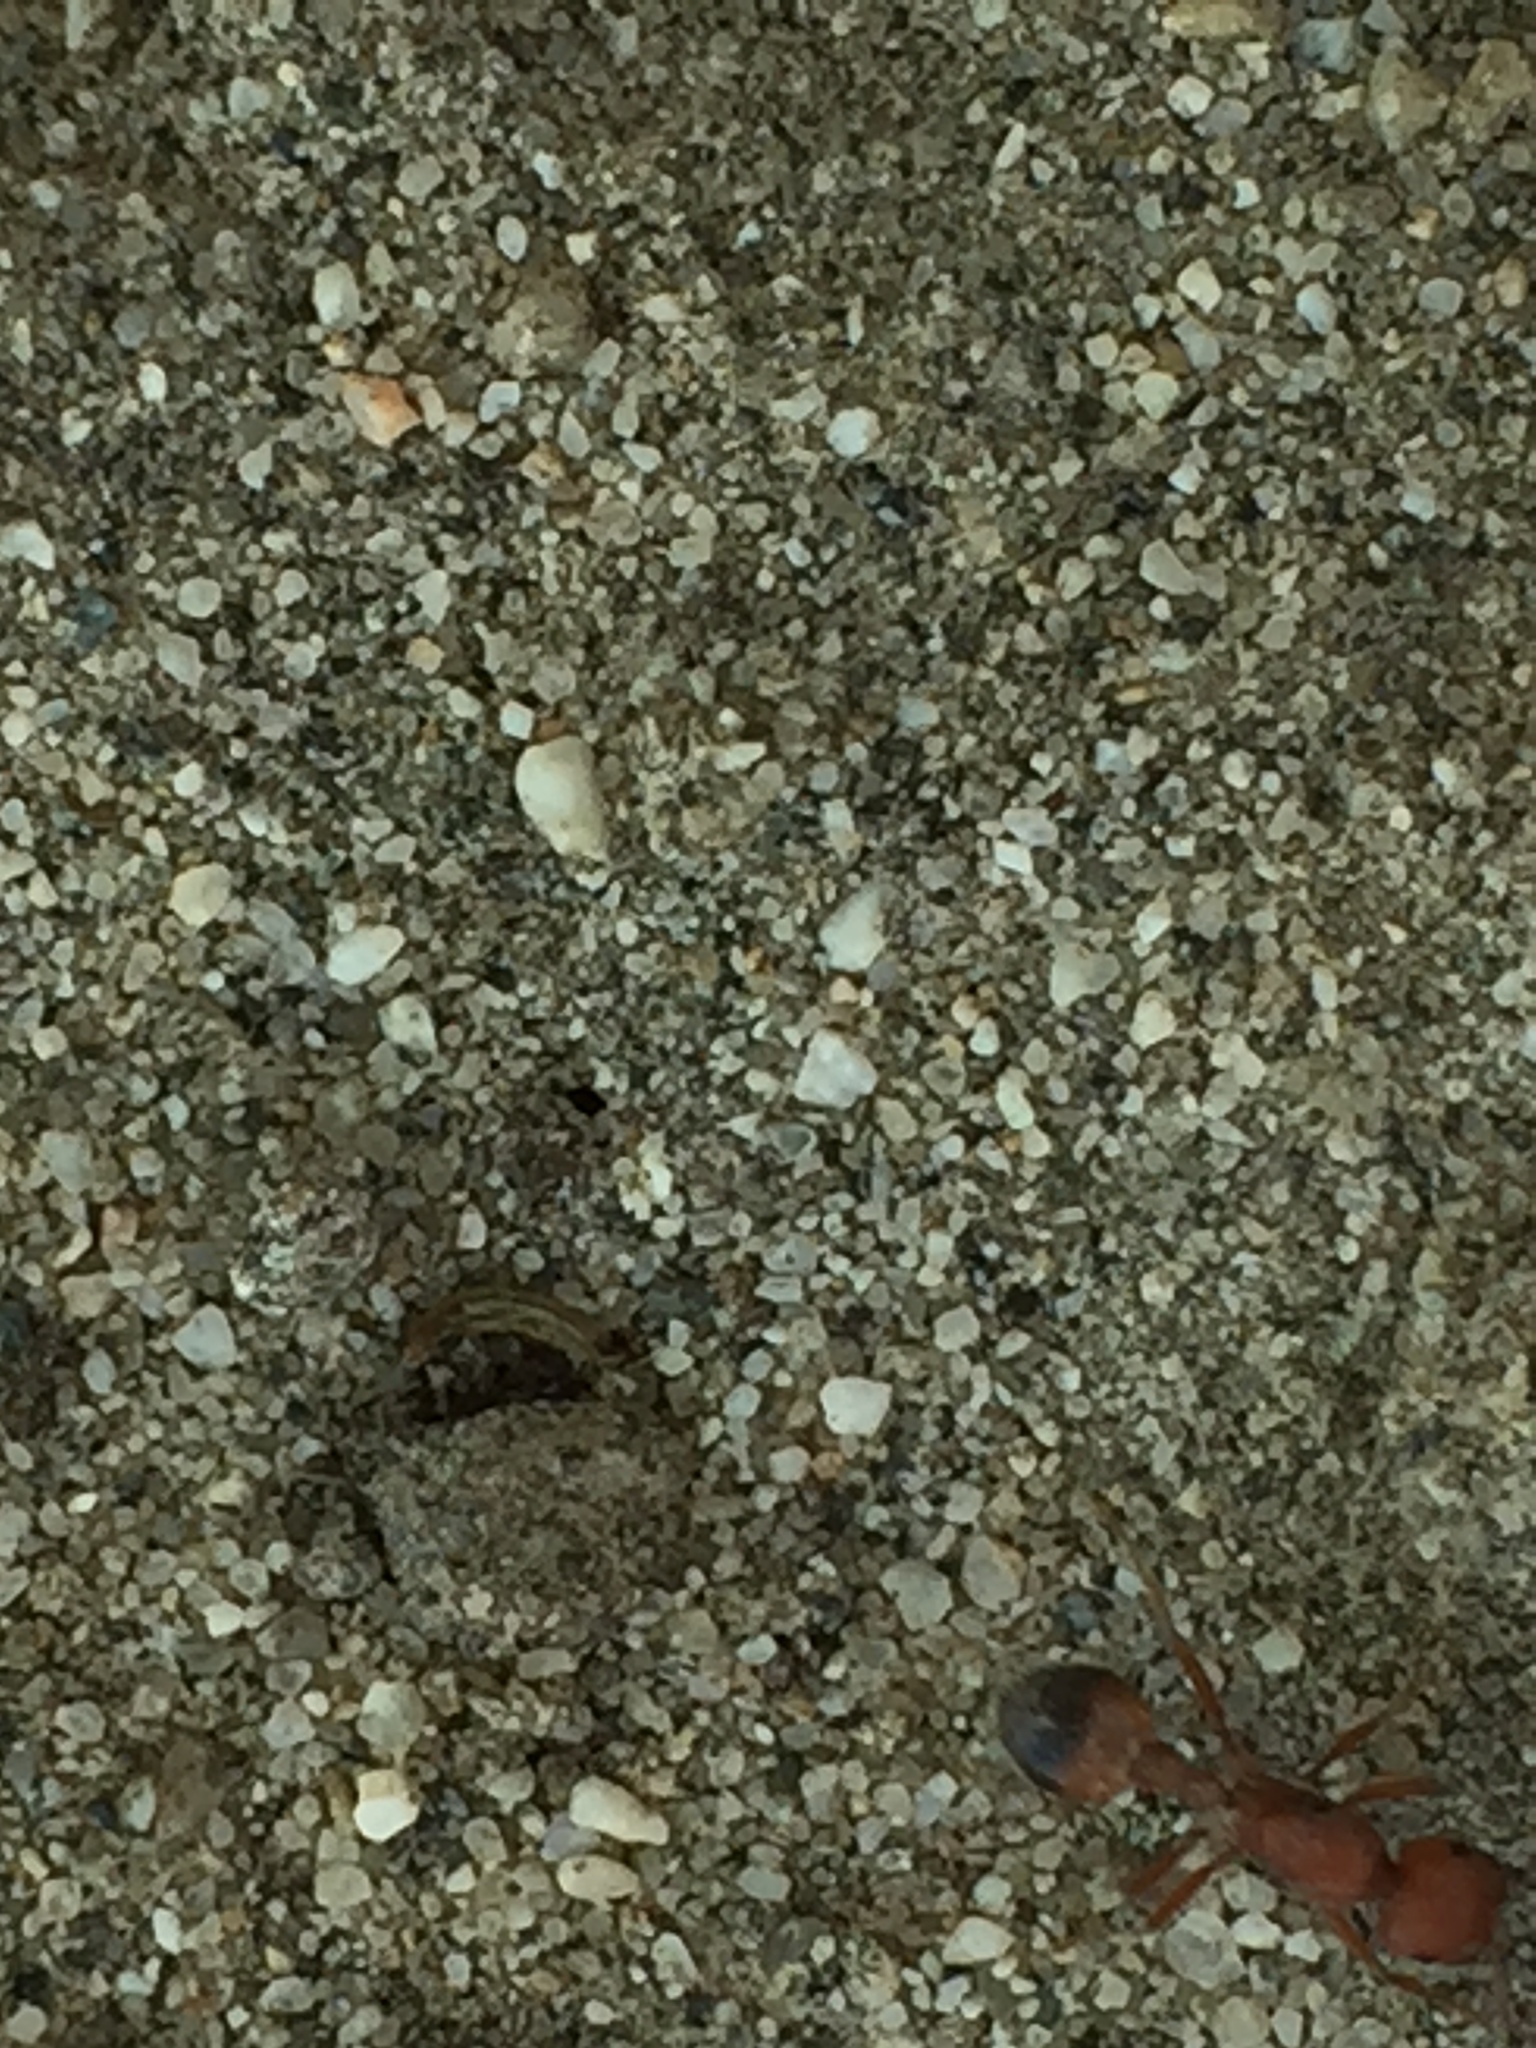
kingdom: Animalia
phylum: Arthropoda
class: Insecta
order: Hymenoptera
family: Formicidae
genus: Pogonomyrmex
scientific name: Pogonomyrmex californicus
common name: California harvester ant
